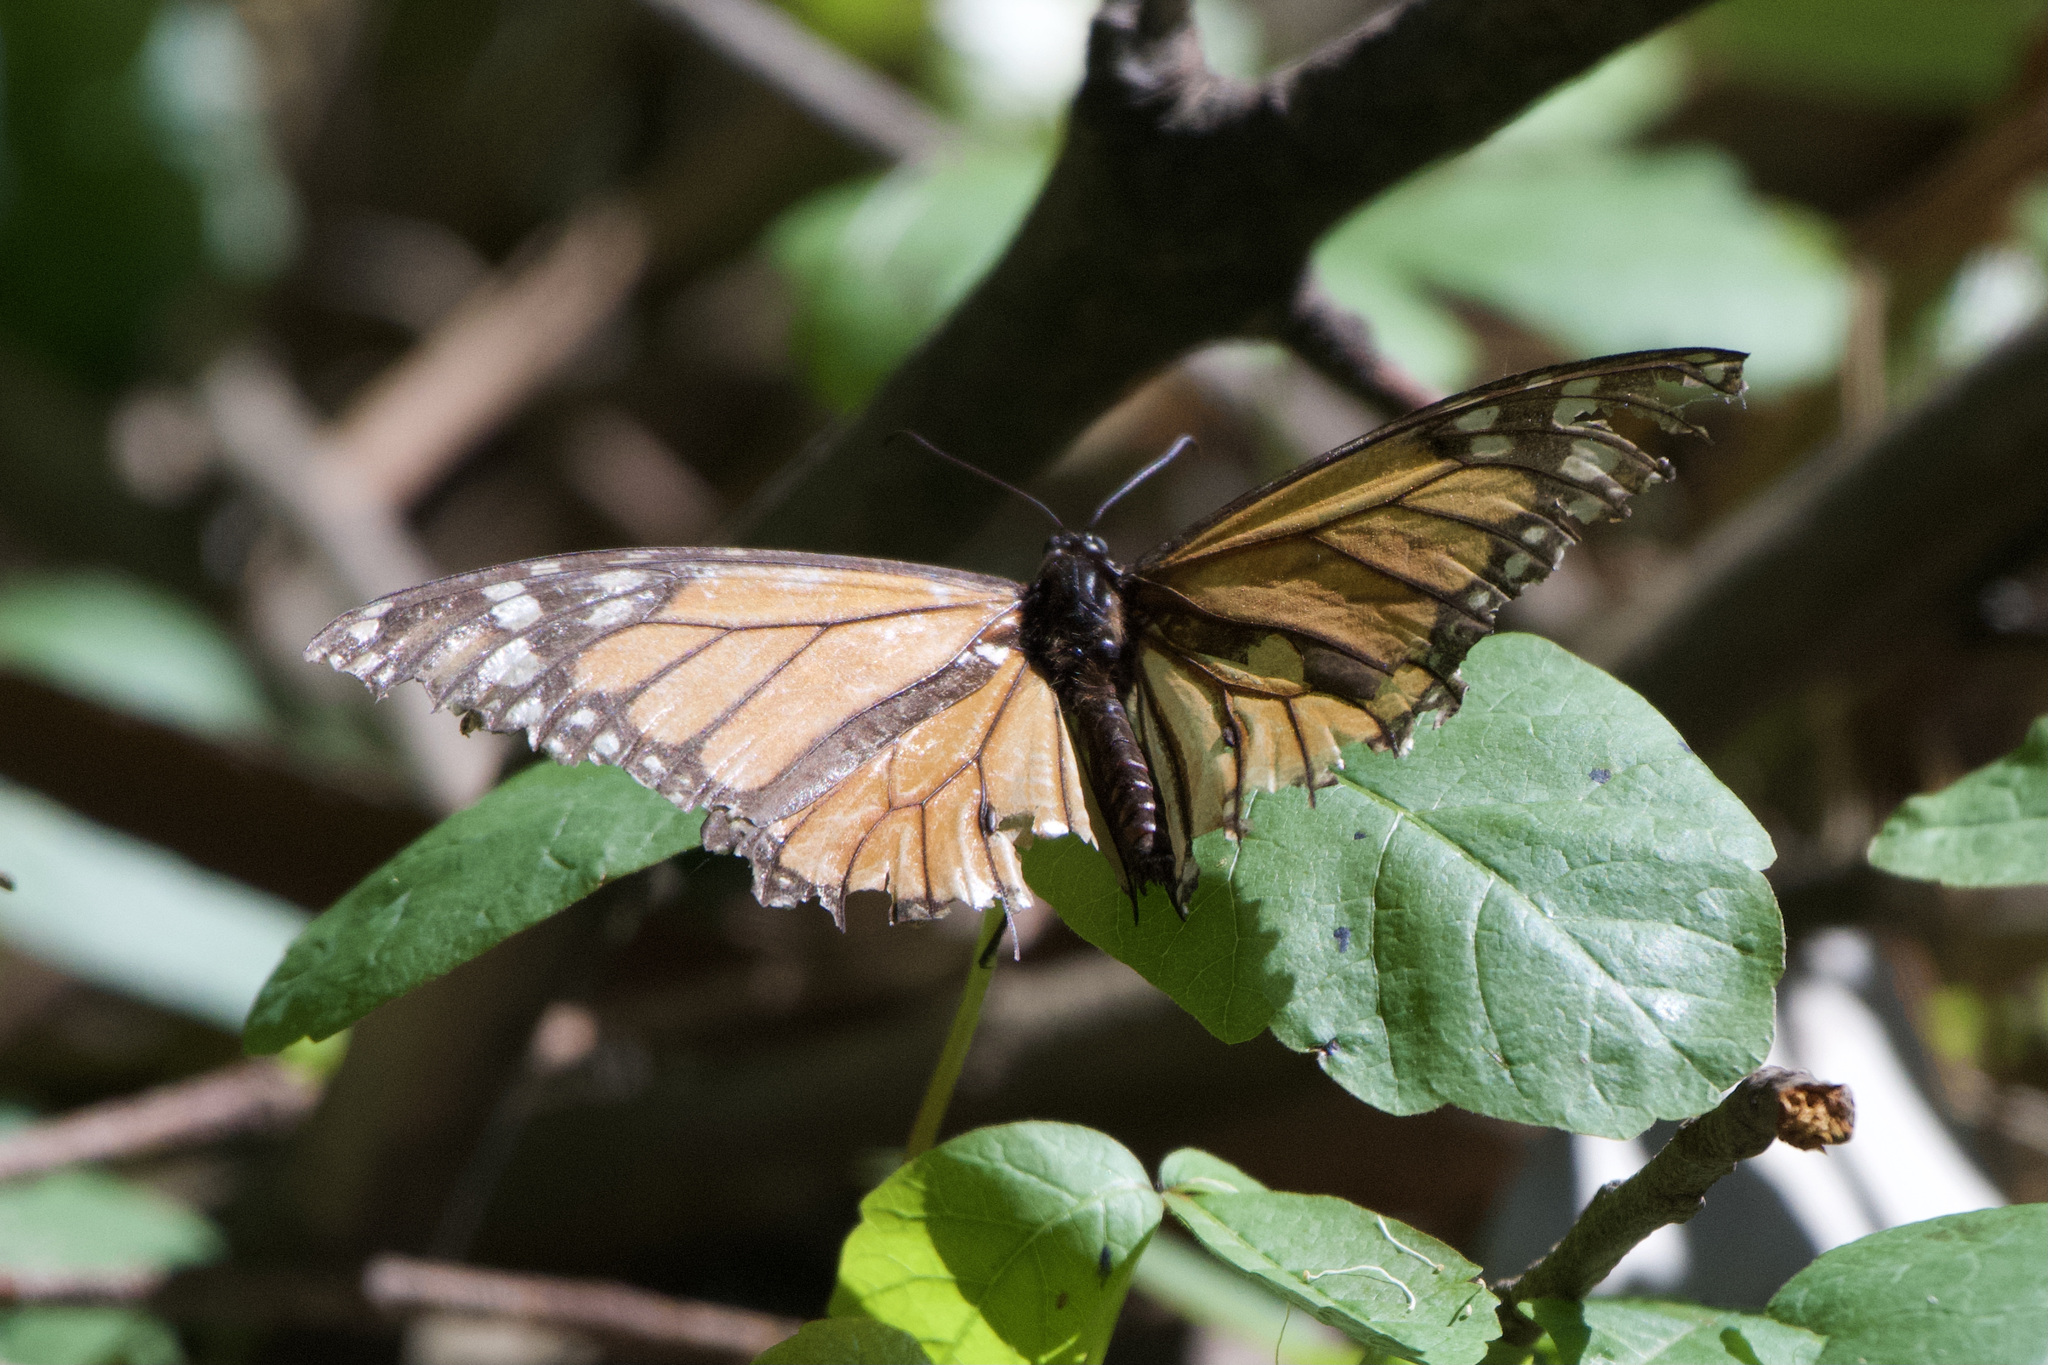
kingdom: Animalia
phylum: Arthropoda
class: Insecta
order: Lepidoptera
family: Nymphalidae
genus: Danaus
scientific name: Danaus plexippus
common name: Monarch
